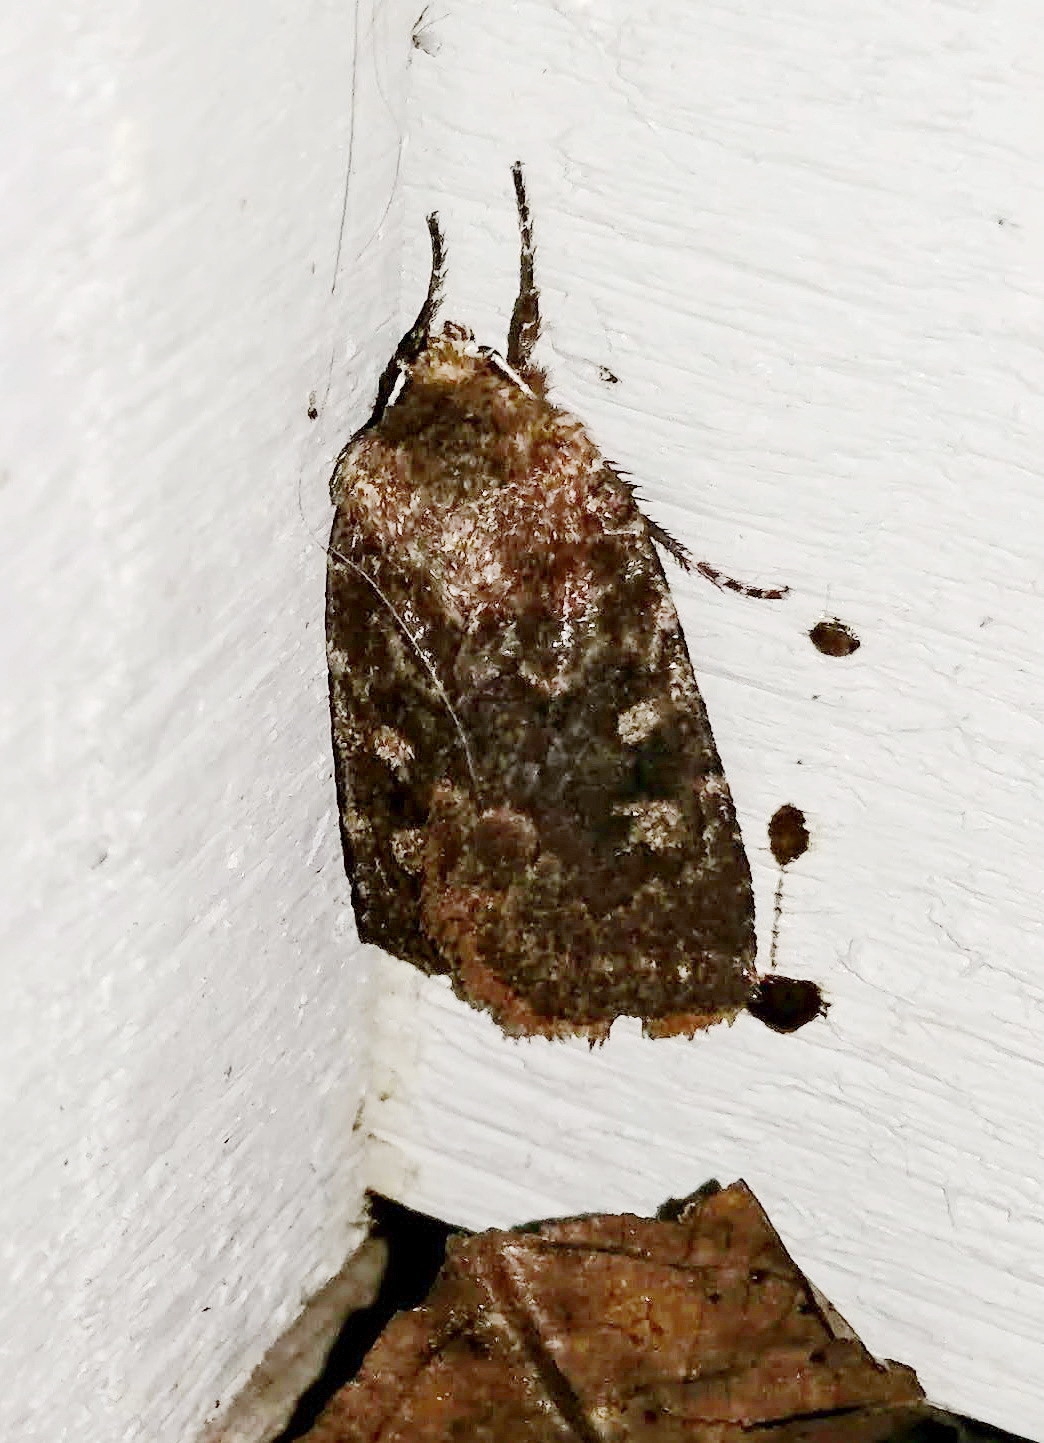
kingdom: Animalia
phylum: Arthropoda
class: Insecta
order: Lepidoptera
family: Noctuidae
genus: Cerastis
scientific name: Cerastis tenebrifera
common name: Reddish speckled dart
